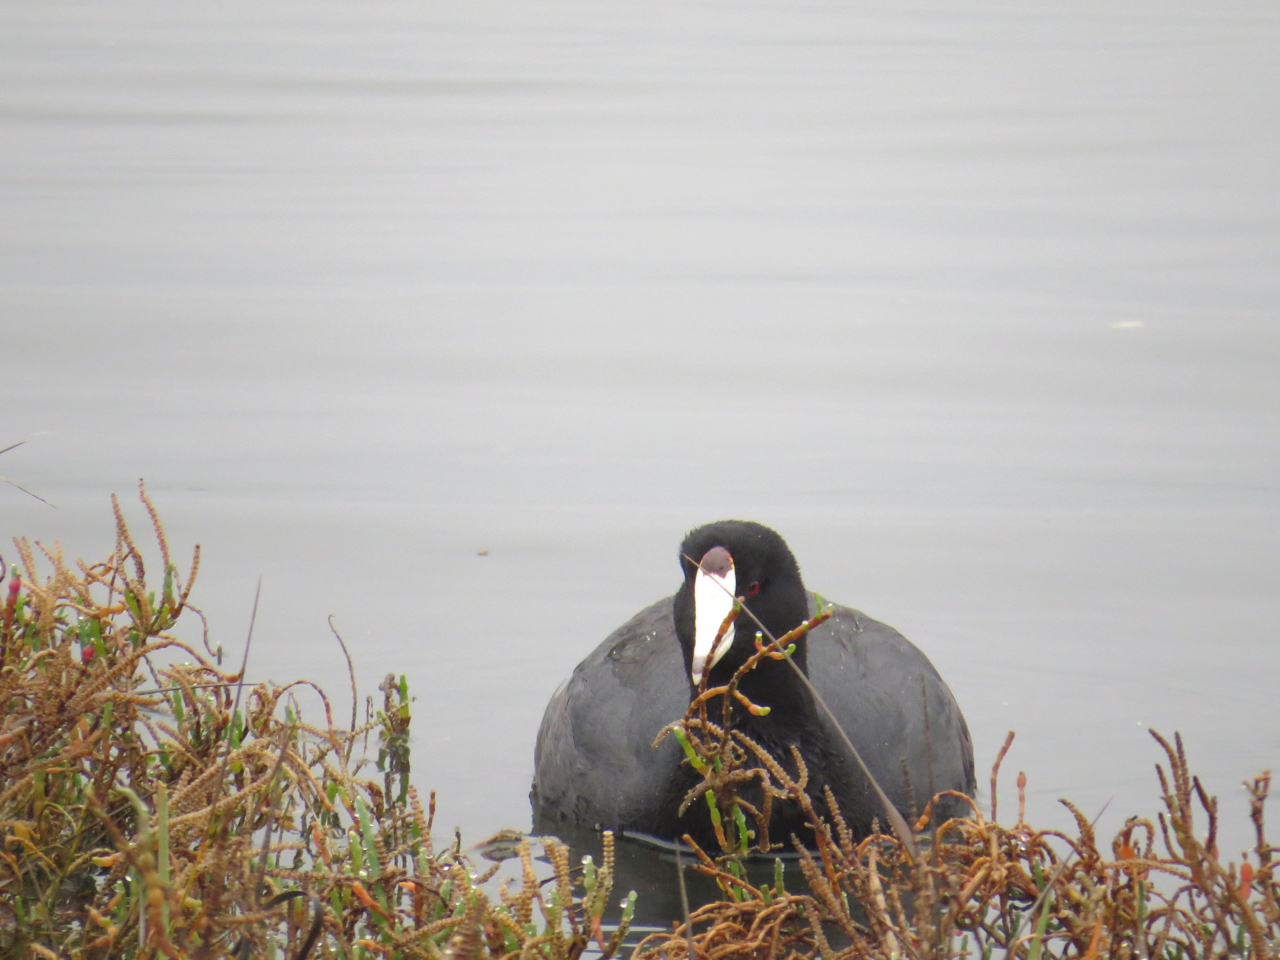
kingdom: Animalia
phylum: Chordata
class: Aves
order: Gruiformes
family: Rallidae
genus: Fulica
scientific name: Fulica americana
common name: American coot
